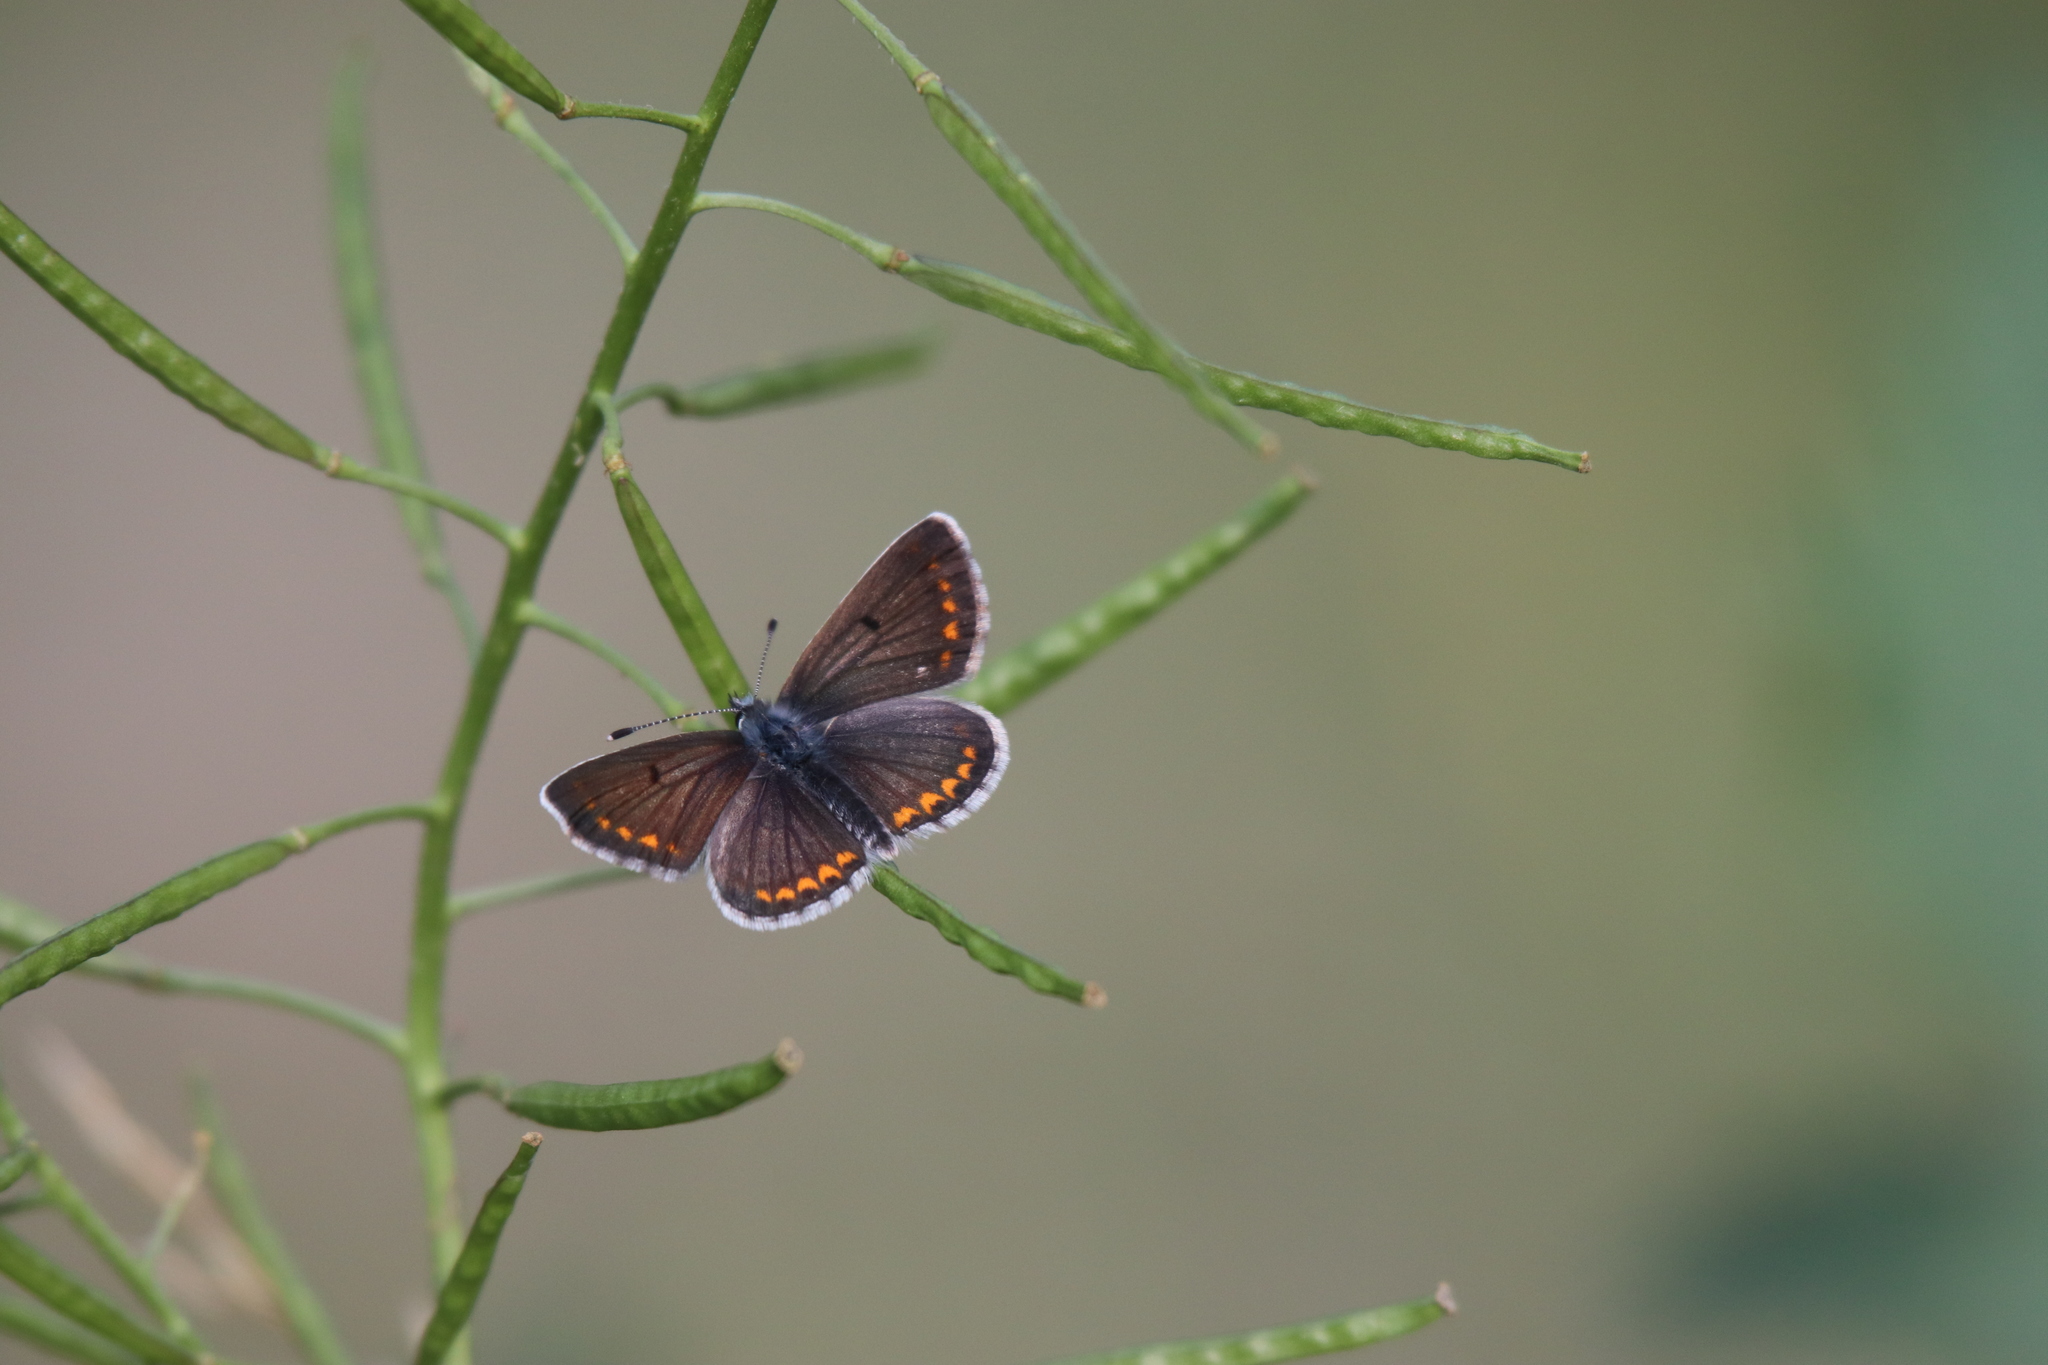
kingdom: Animalia
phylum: Arthropoda
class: Insecta
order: Lepidoptera
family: Lycaenidae
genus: Aricia
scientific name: Aricia agestis
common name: Brown argus
